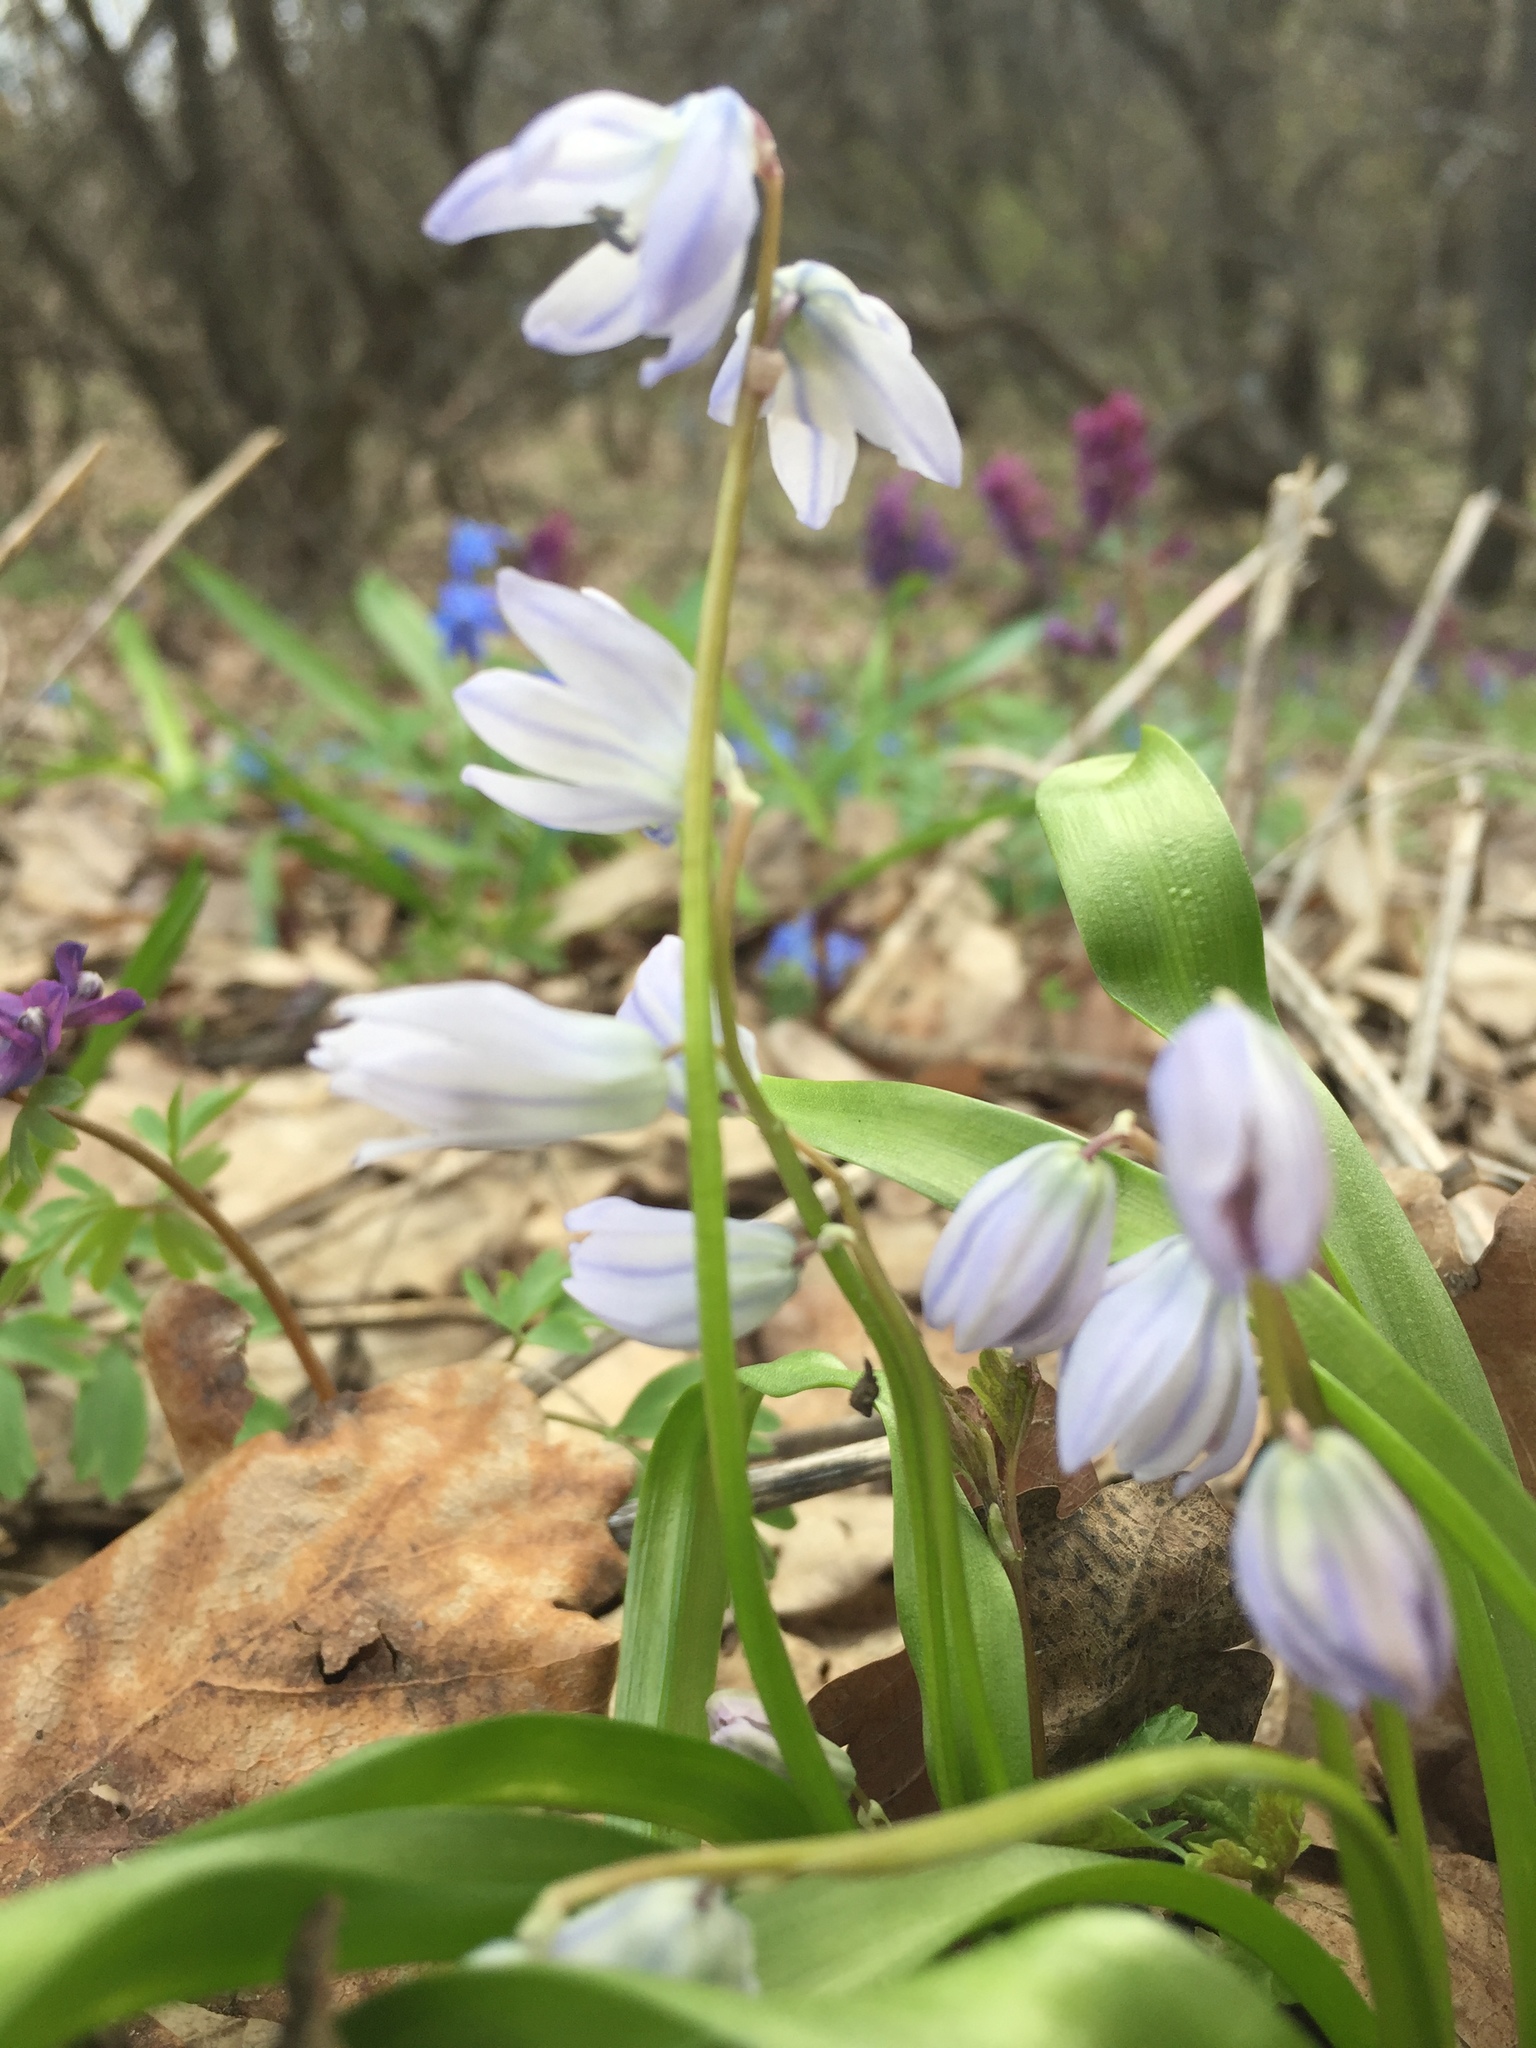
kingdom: Plantae
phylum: Tracheophyta
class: Liliopsida
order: Asparagales
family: Asparagaceae
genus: Scilla
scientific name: Scilla siberica
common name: Siberian squill
